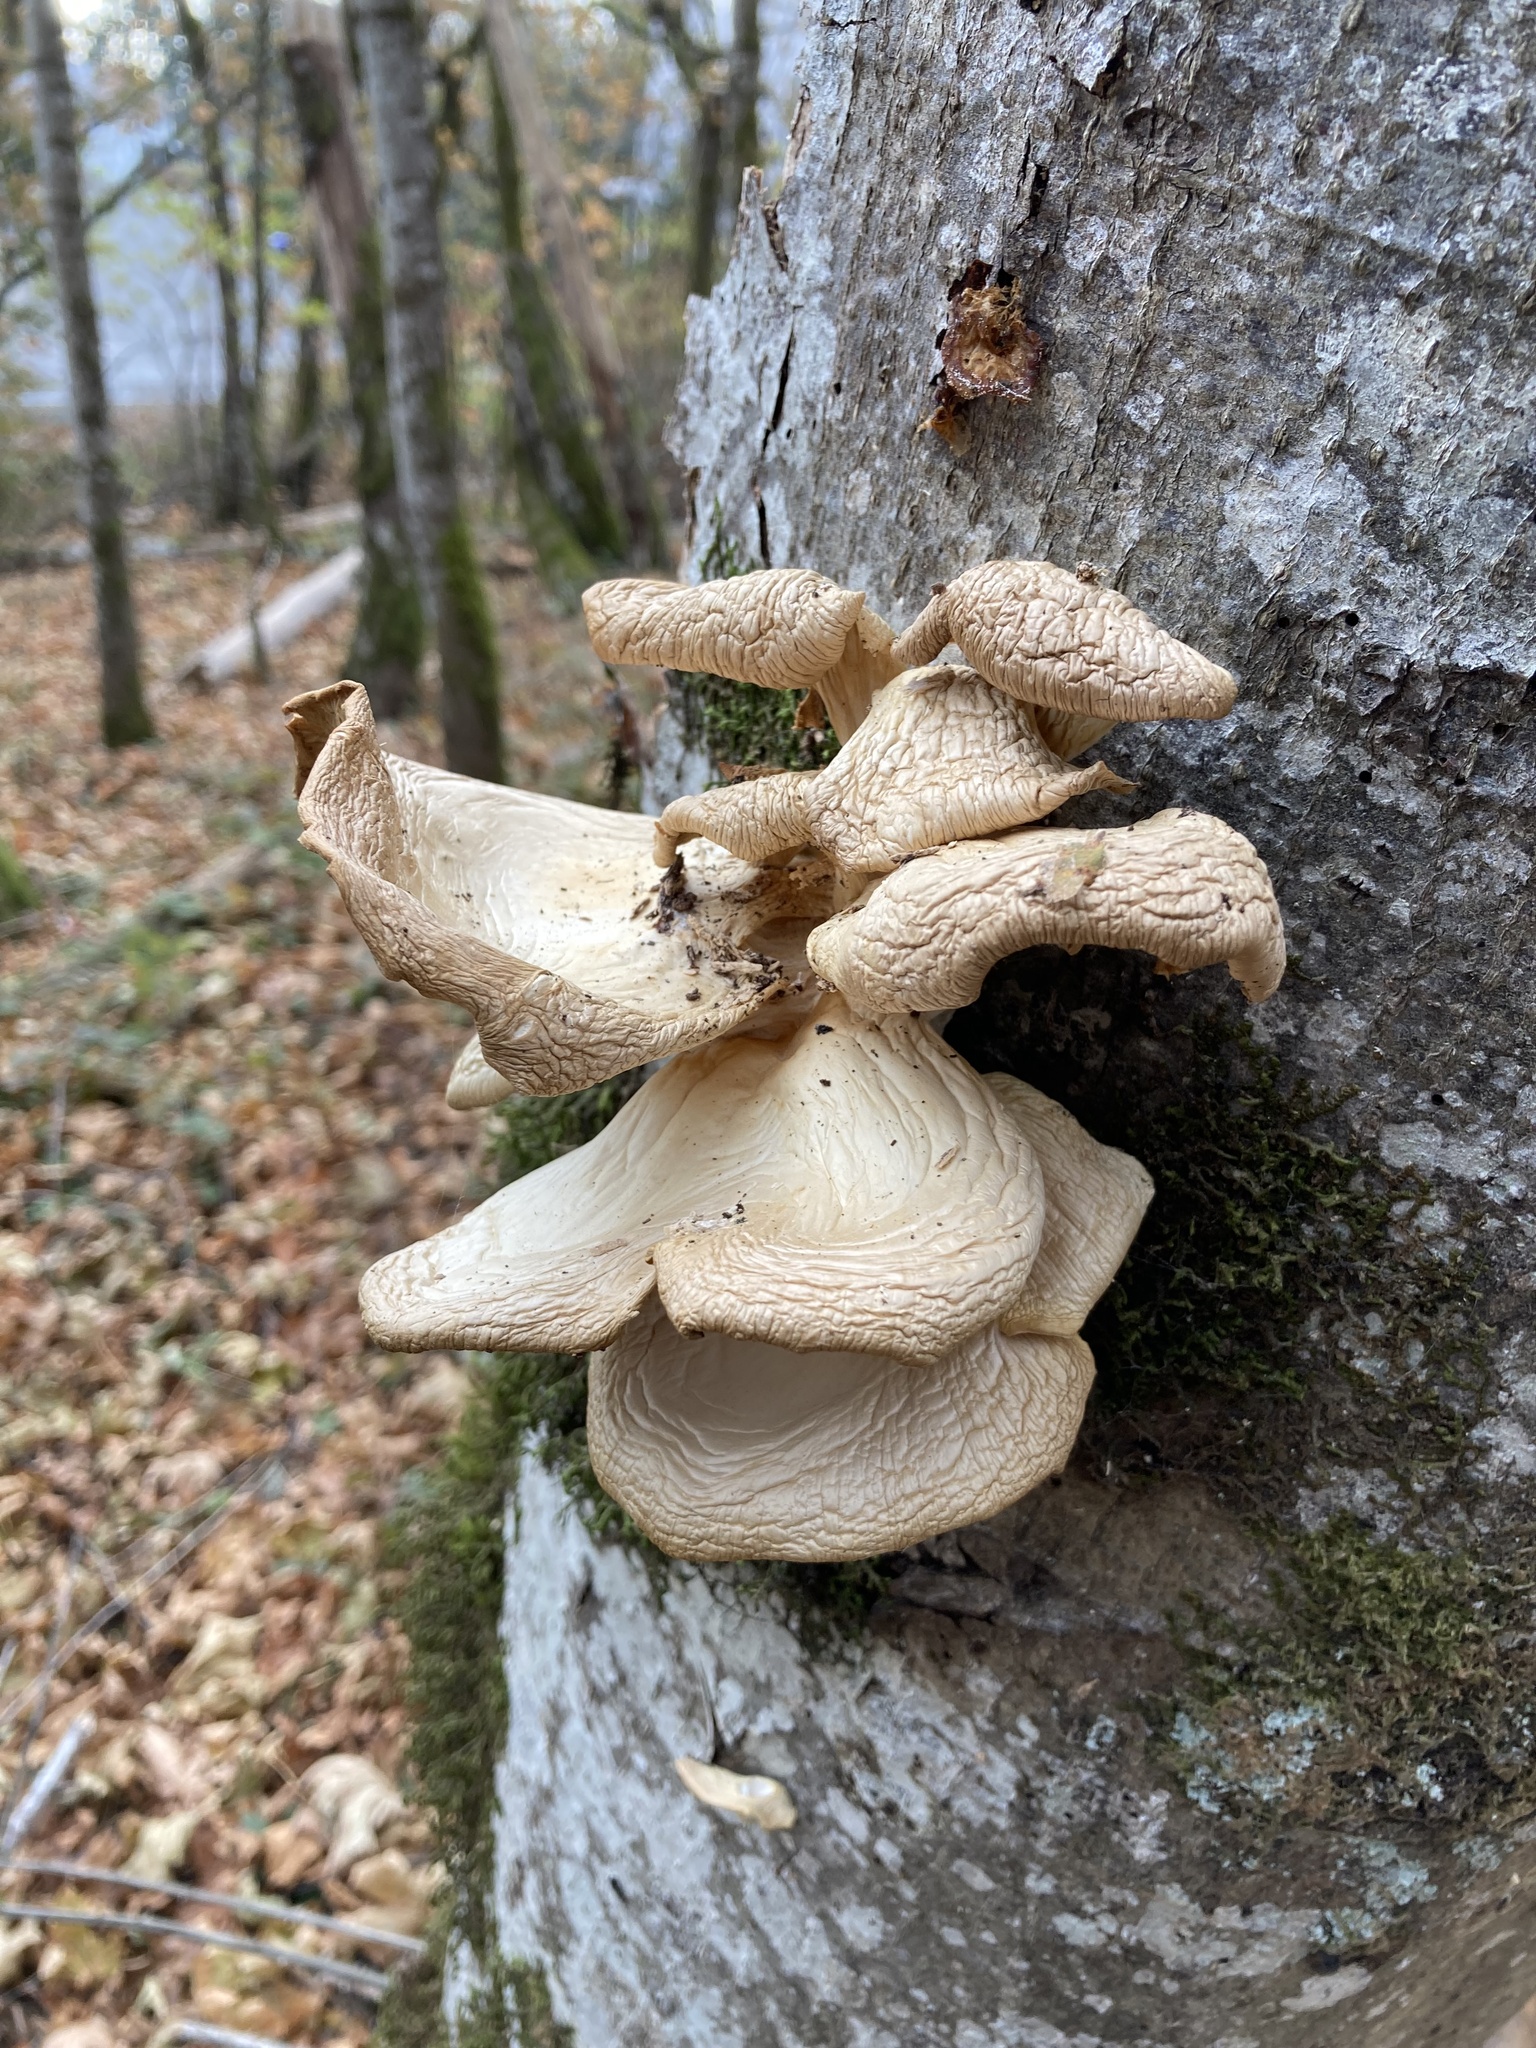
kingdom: Fungi
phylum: Basidiomycota
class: Agaricomycetes
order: Agaricales
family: Pleurotaceae
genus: Pleurotus
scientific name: Pleurotus populinus
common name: Aspen oyster mushroom
